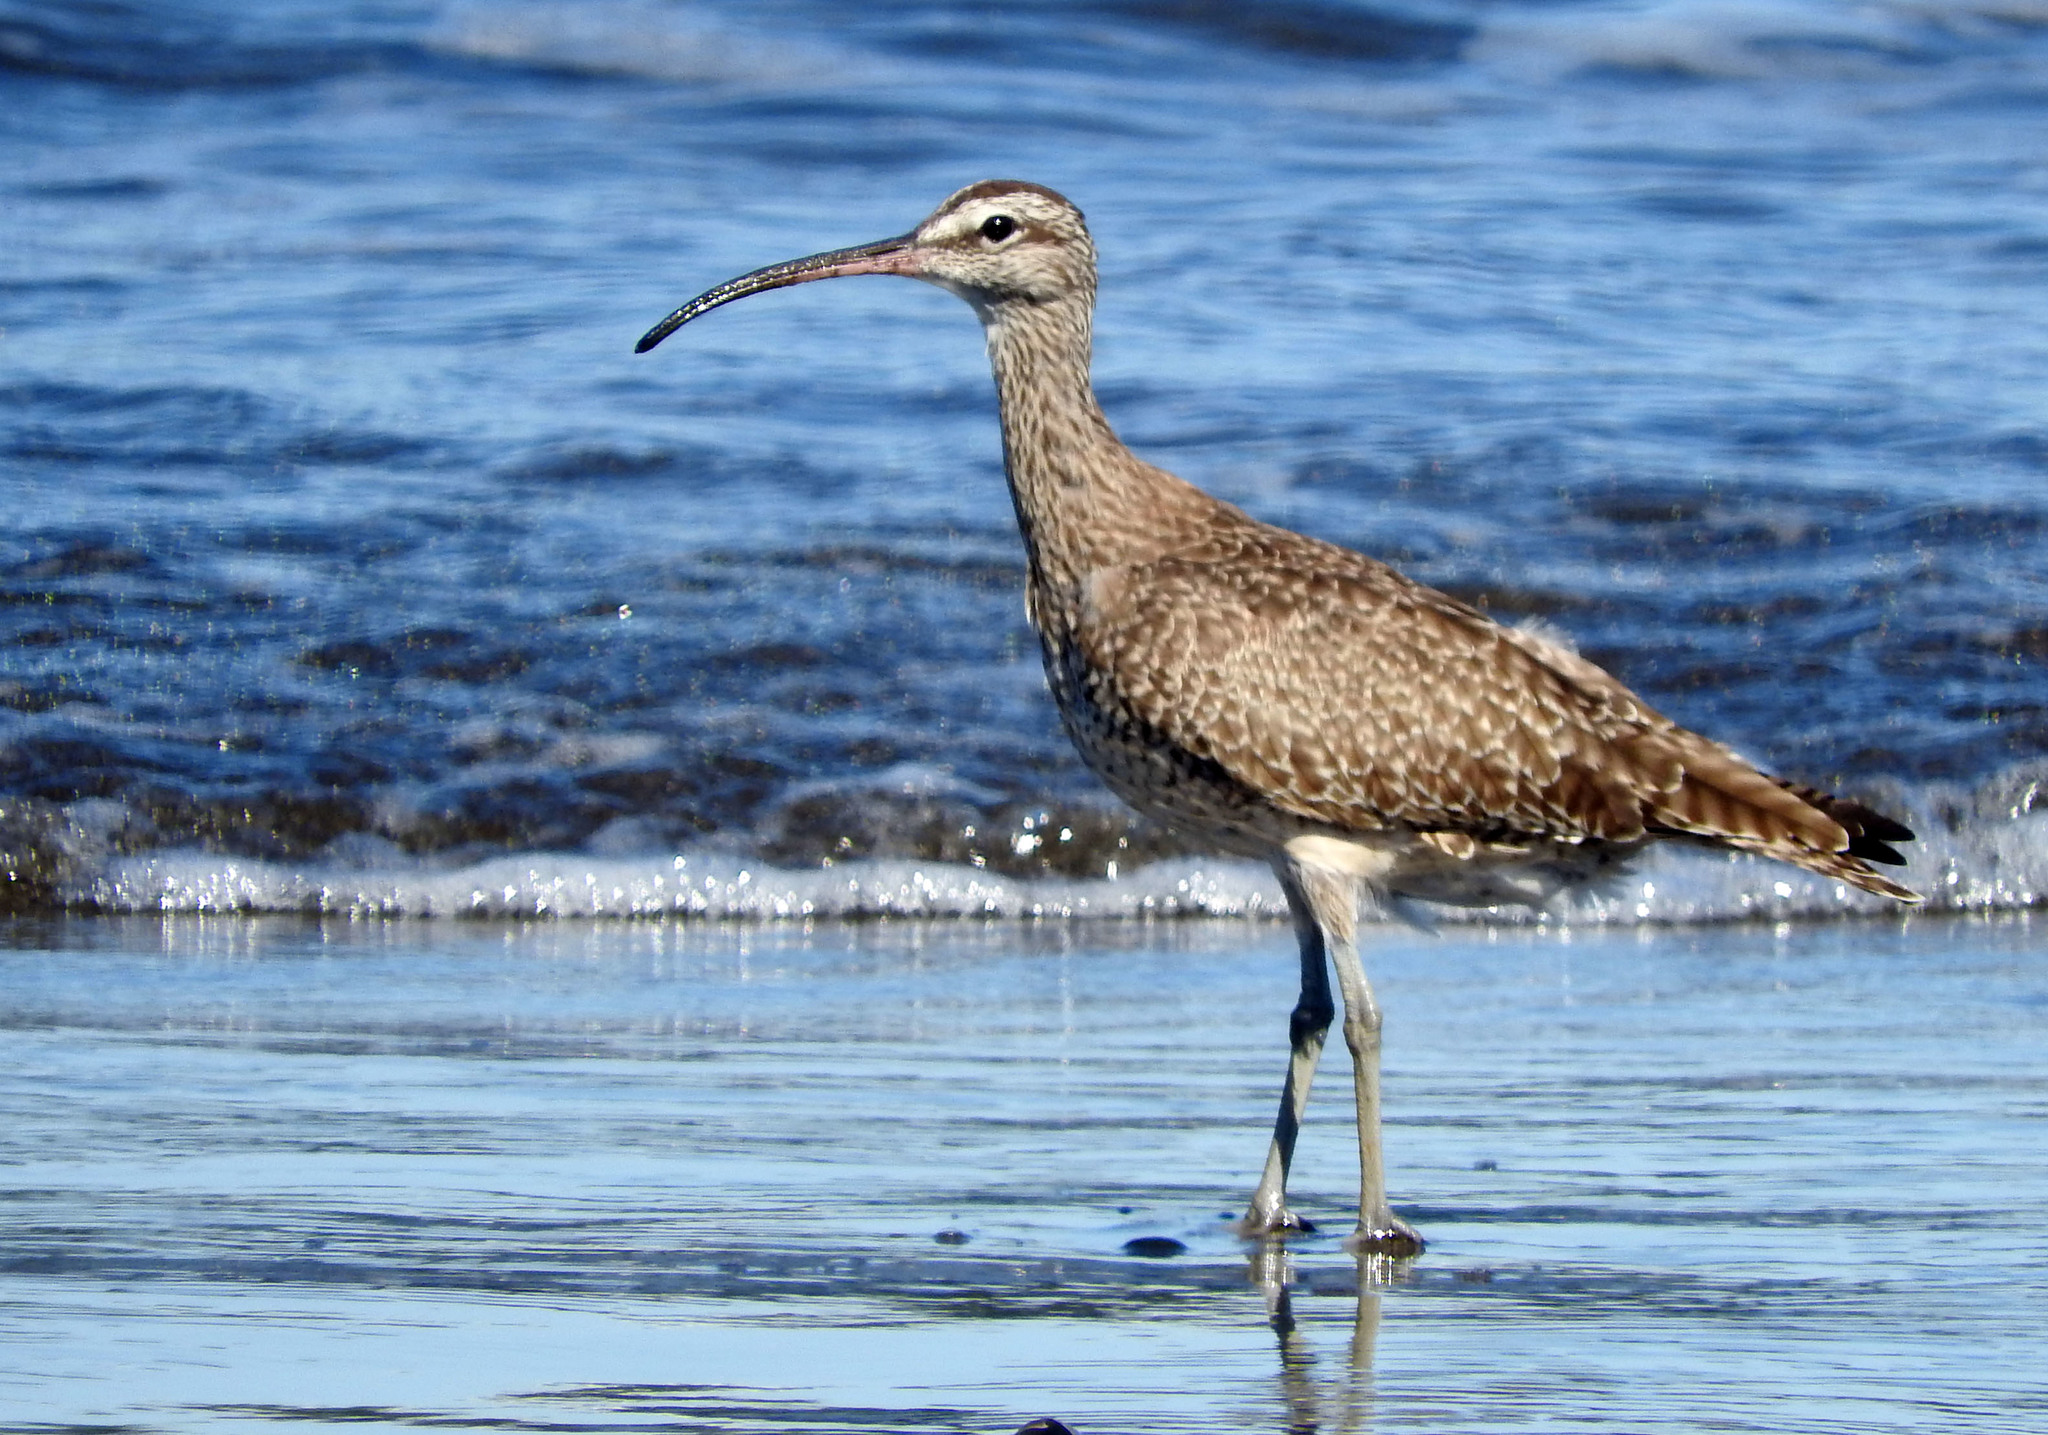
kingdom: Animalia
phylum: Chordata
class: Aves
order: Charadriiformes
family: Scolopacidae
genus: Numenius
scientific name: Numenius phaeopus
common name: Whimbrel
